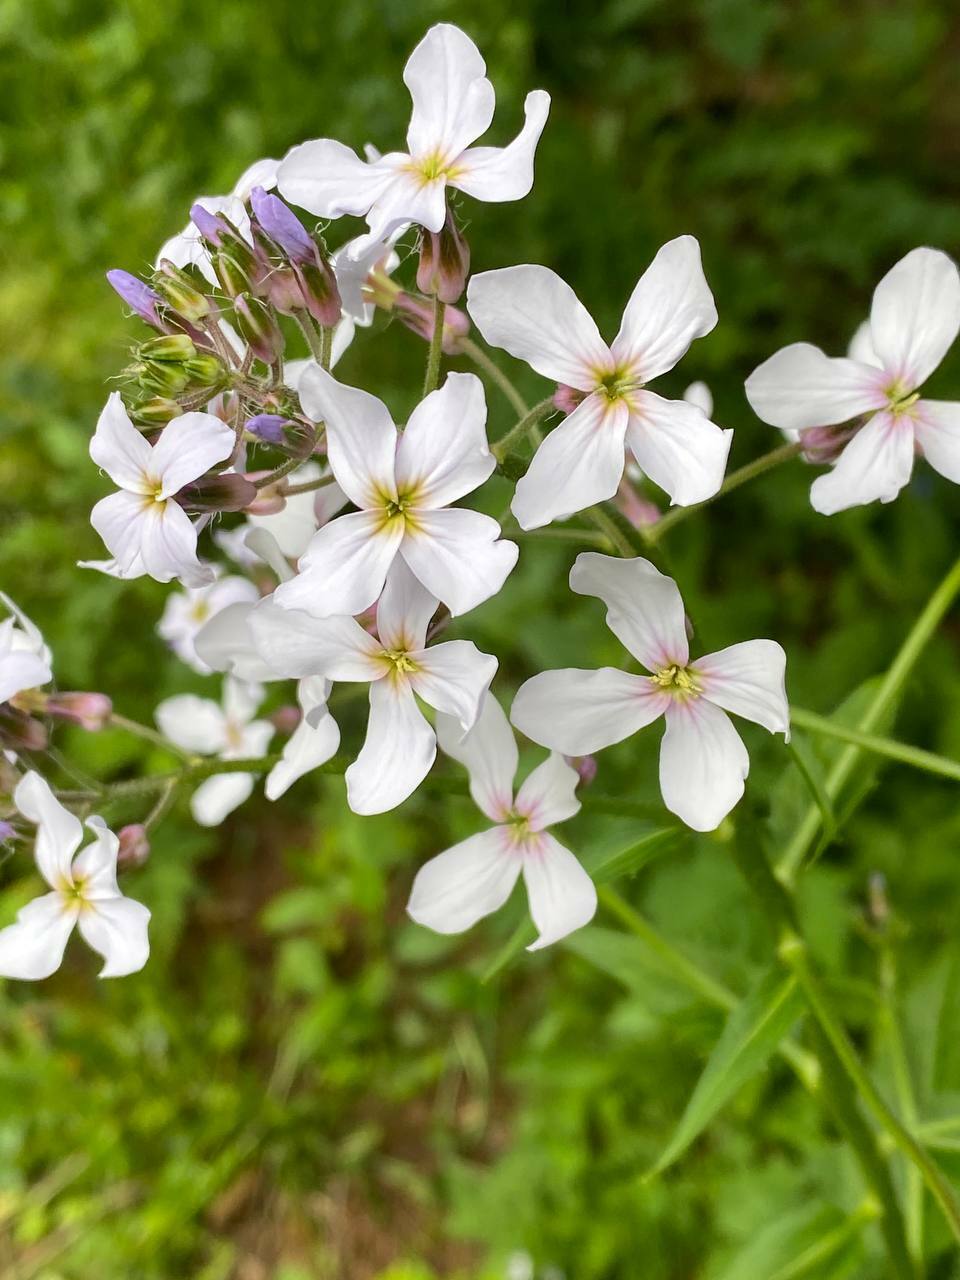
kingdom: Plantae
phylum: Tracheophyta
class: Magnoliopsida
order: Brassicales
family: Brassicaceae
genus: Hesperis
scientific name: Hesperis matronalis
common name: Dame's-violet
